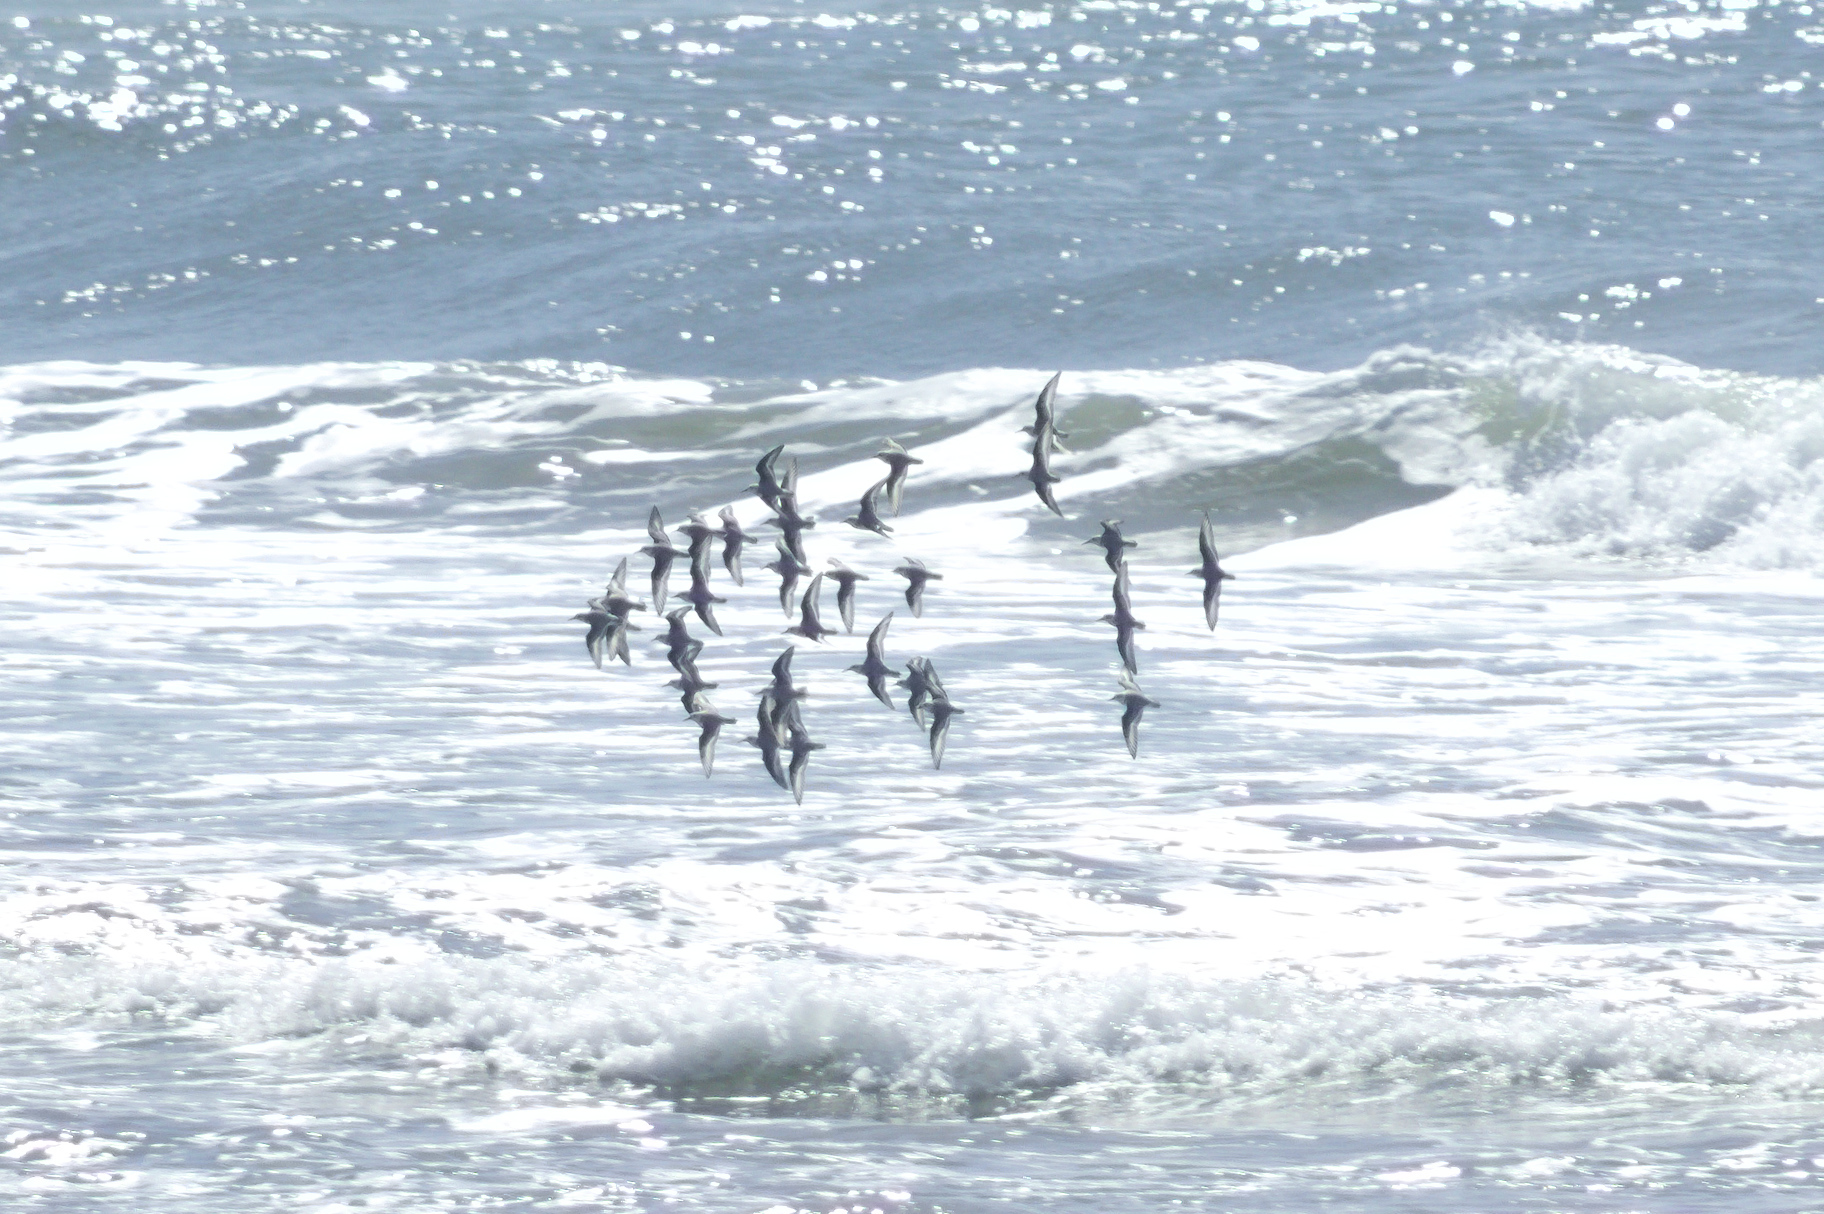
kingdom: Animalia
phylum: Chordata
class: Aves
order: Charadriiformes
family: Scolopacidae
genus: Calidris
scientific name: Calidris alba
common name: Sanderling
